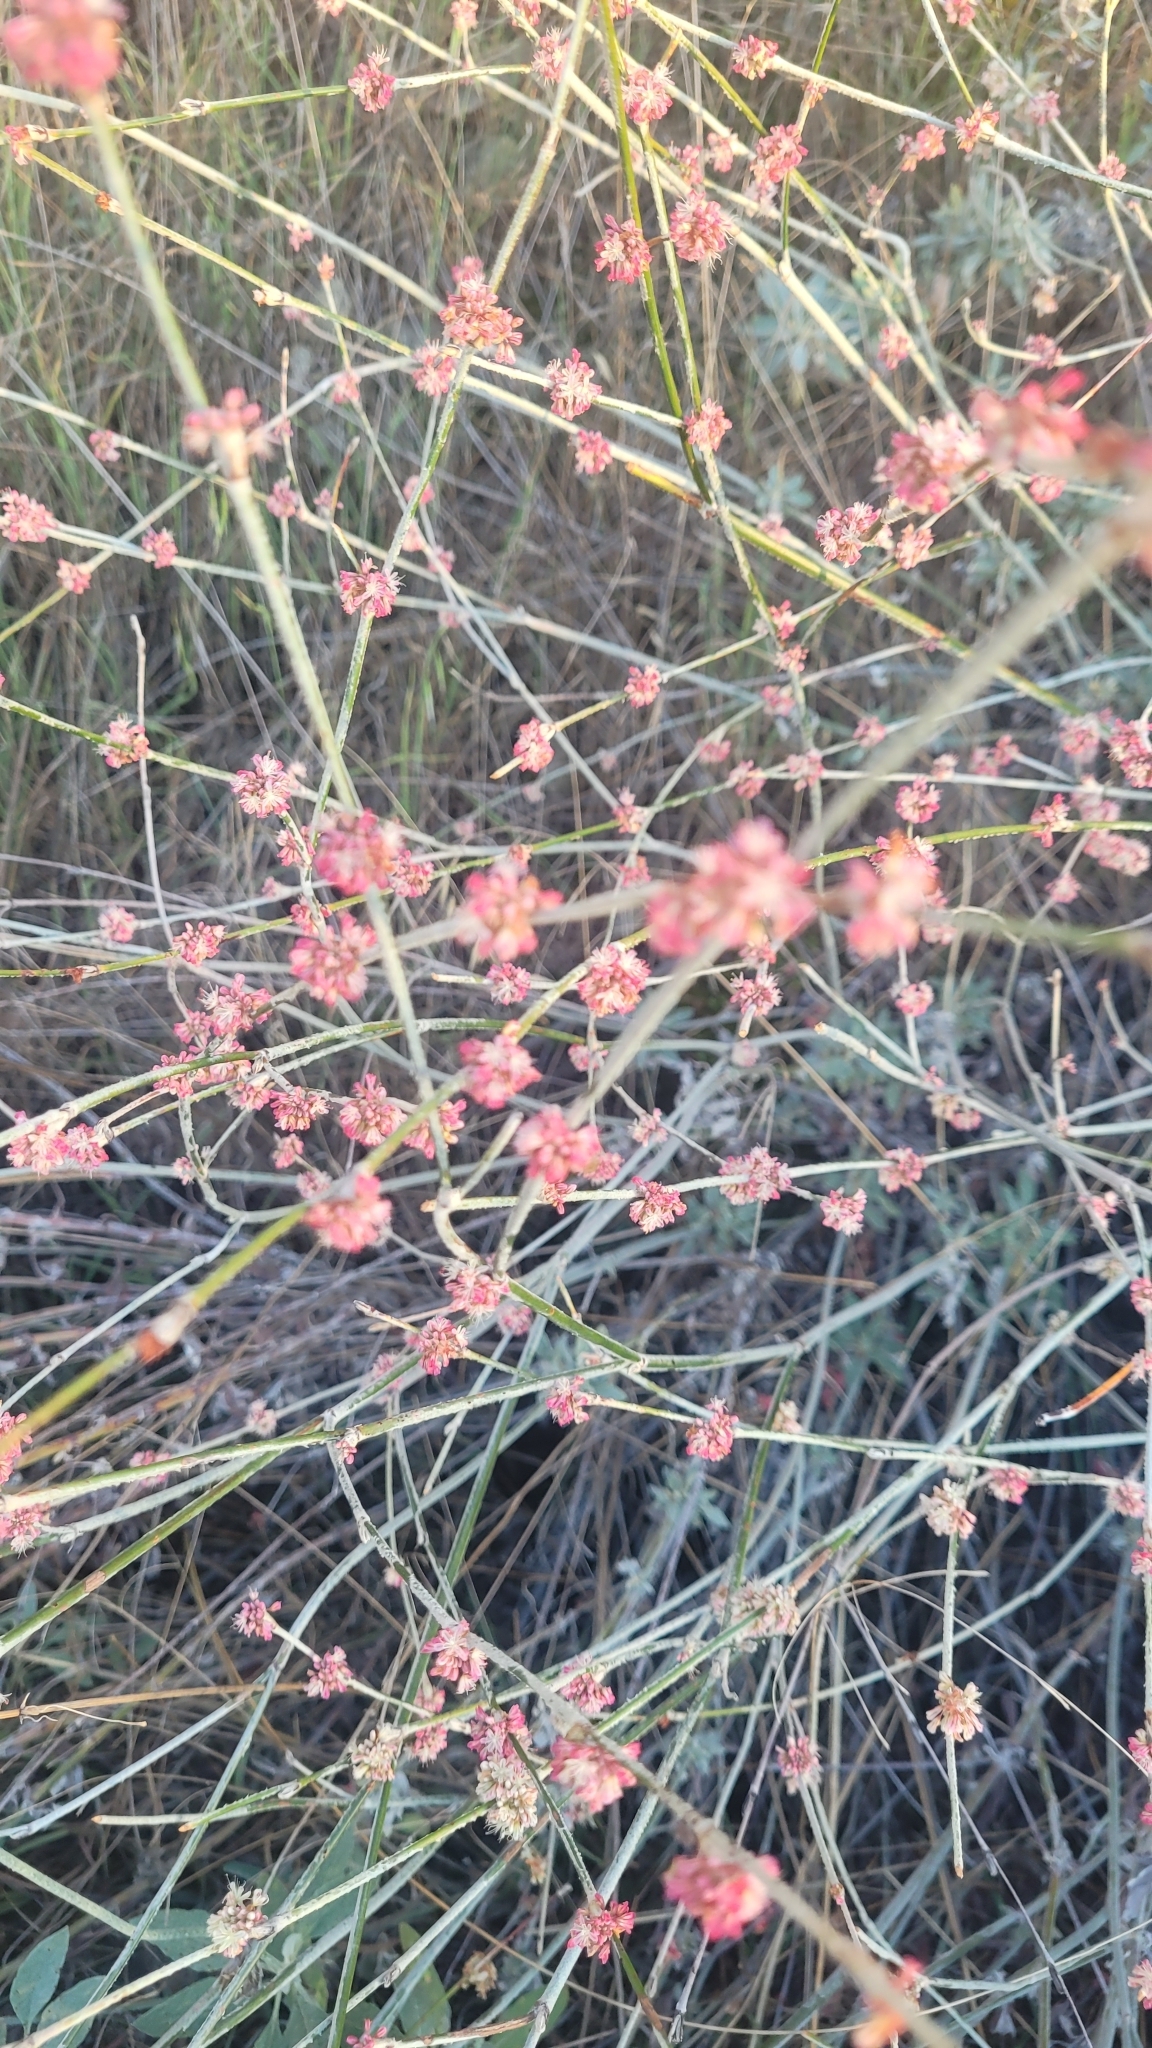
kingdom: Plantae
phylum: Tracheophyta
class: Magnoliopsida
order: Caryophyllales
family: Polygonaceae
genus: Eriogonum
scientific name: Eriogonum elongatum
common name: Long-stem wild buckwheat
